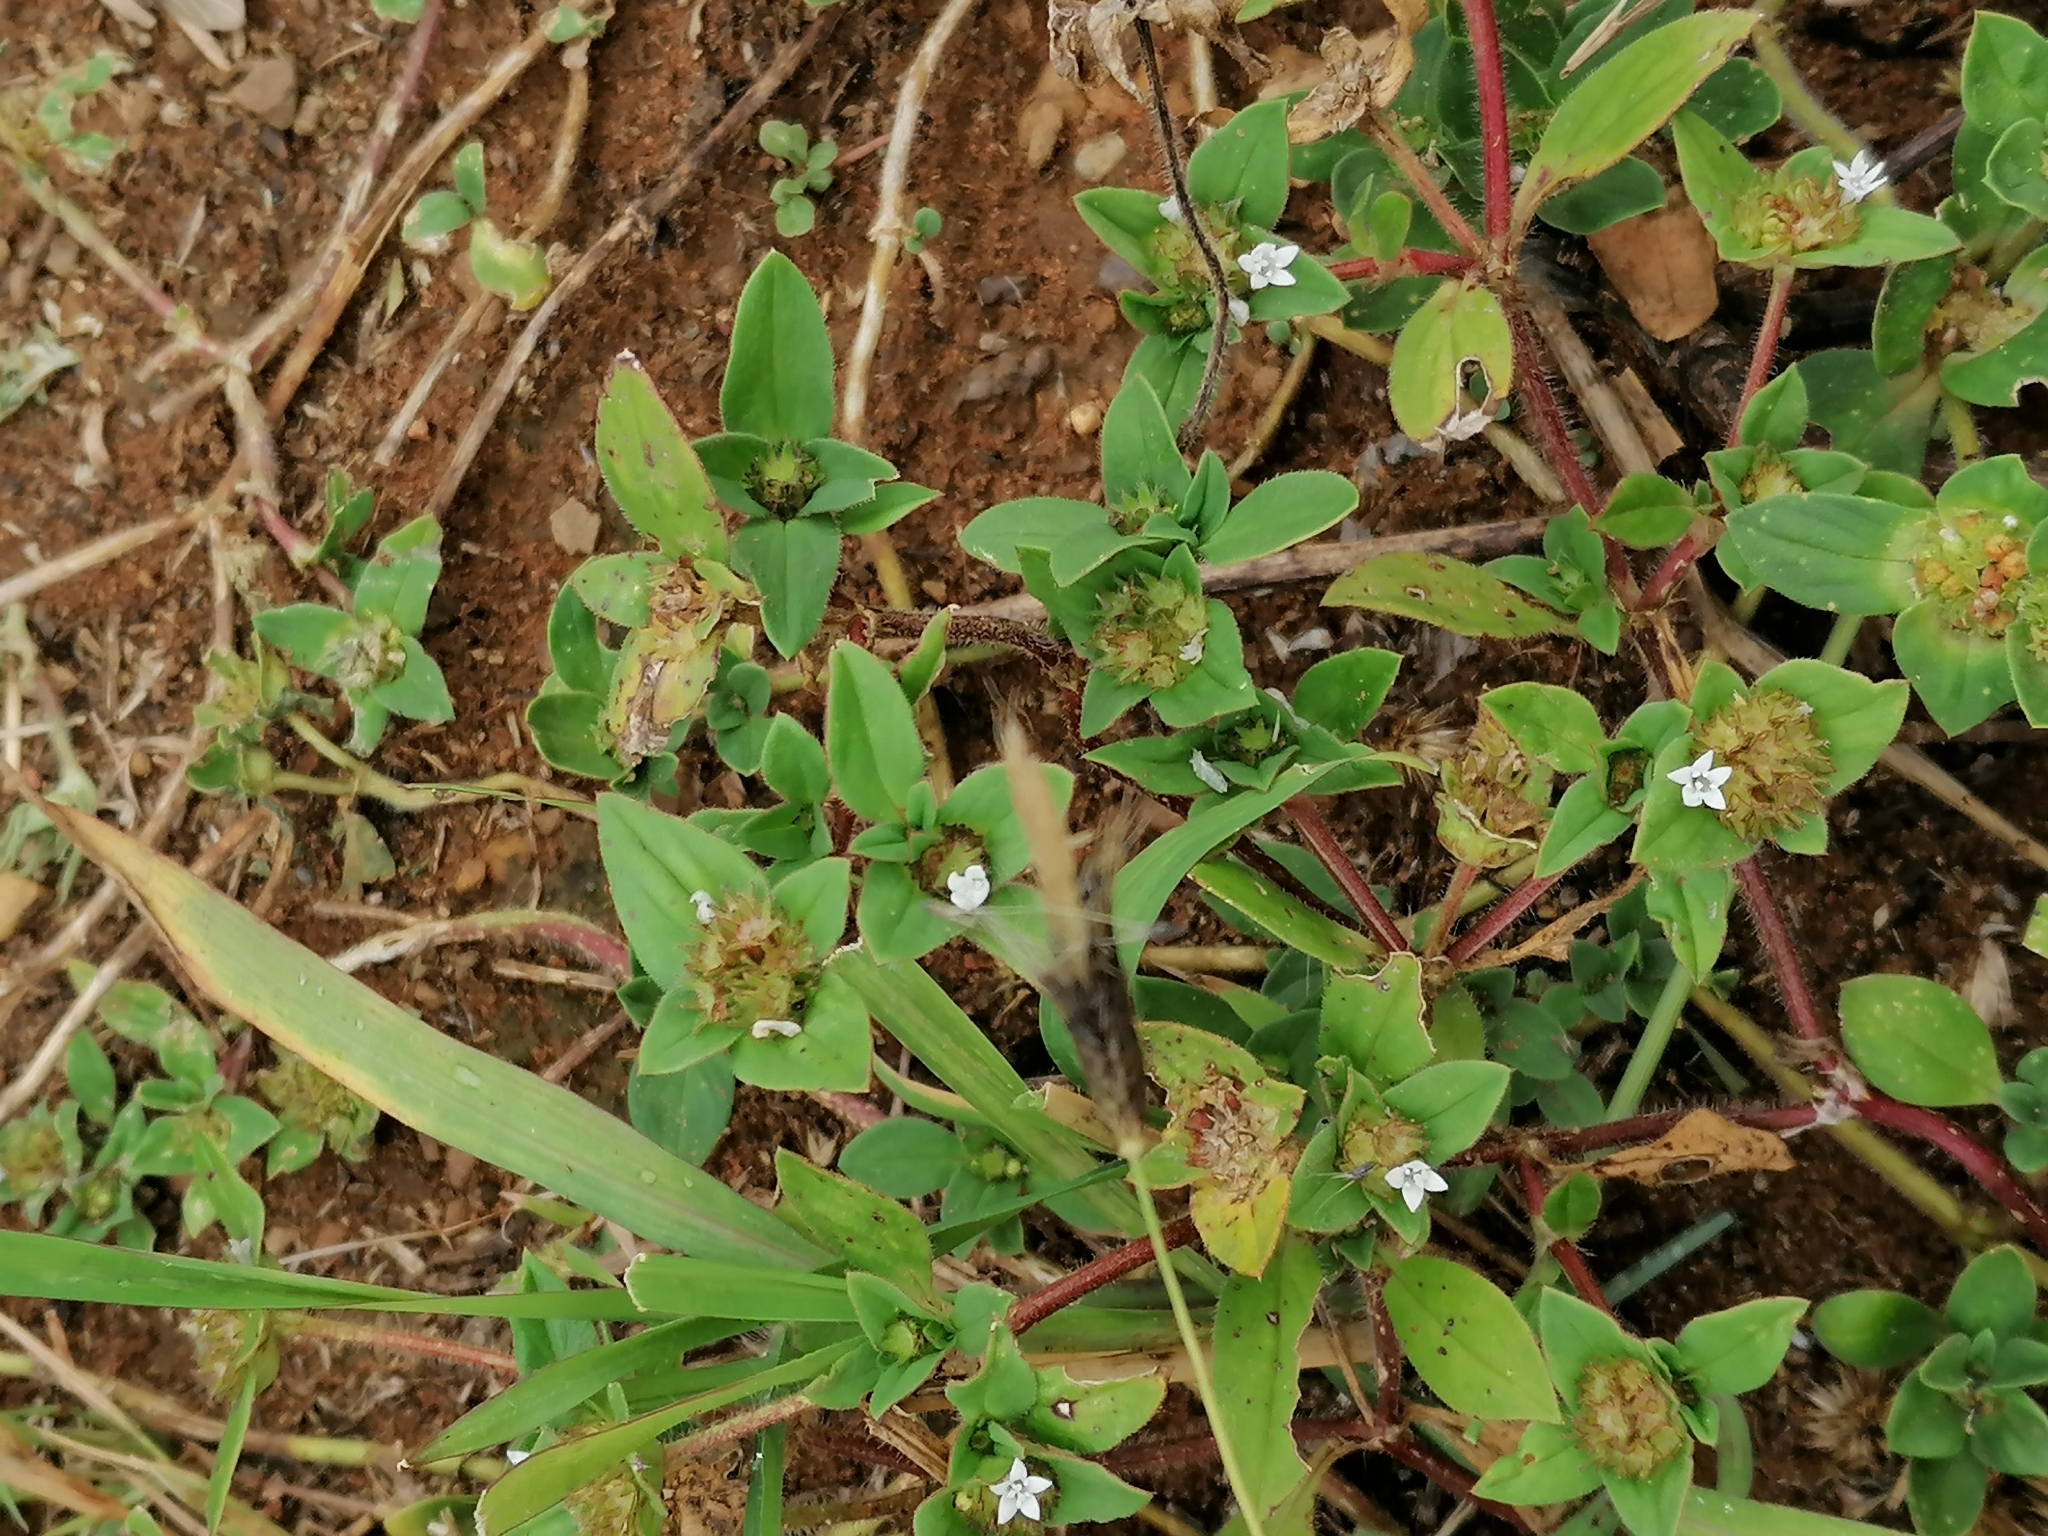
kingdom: Plantae
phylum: Tracheophyta
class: Magnoliopsida
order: Gentianales
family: Rubiaceae
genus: Richardia
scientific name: Richardia brasiliensis
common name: Tropical mexican clover
